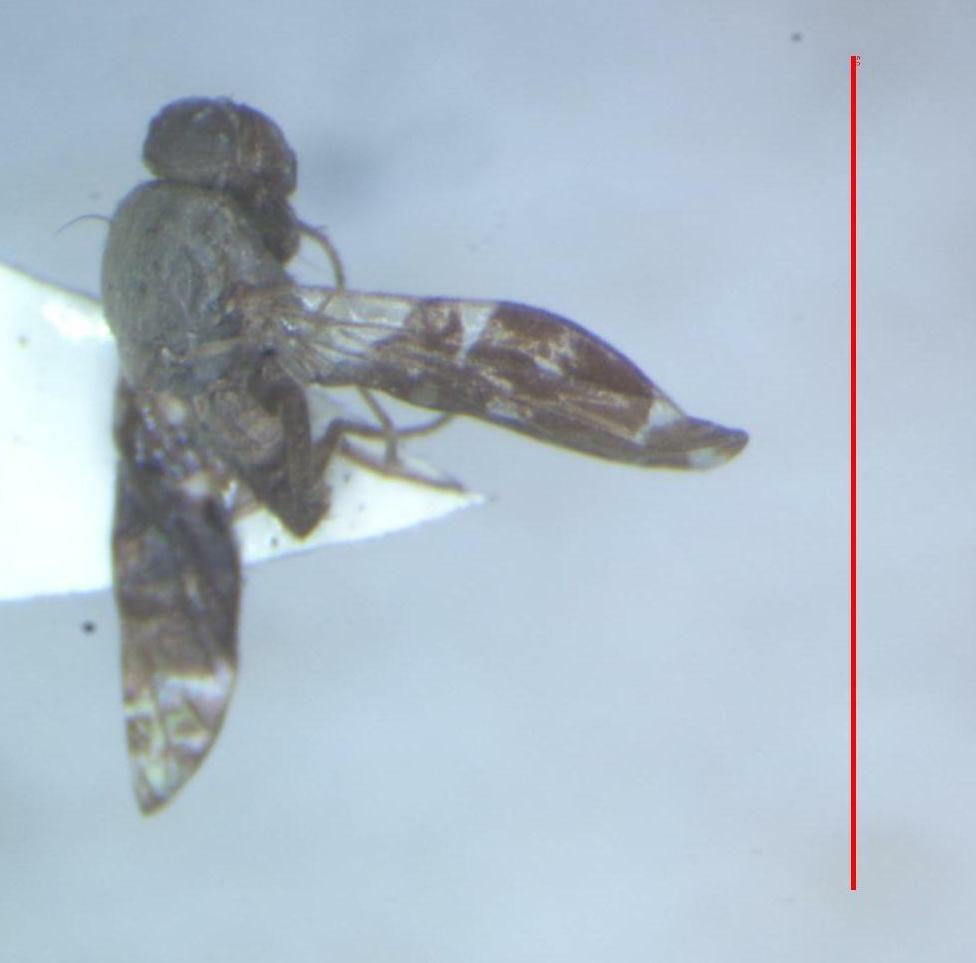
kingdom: Animalia
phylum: Arthropoda
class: Insecta
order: Diptera
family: Tephritidae
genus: Neotaracia
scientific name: Neotaracia imox
